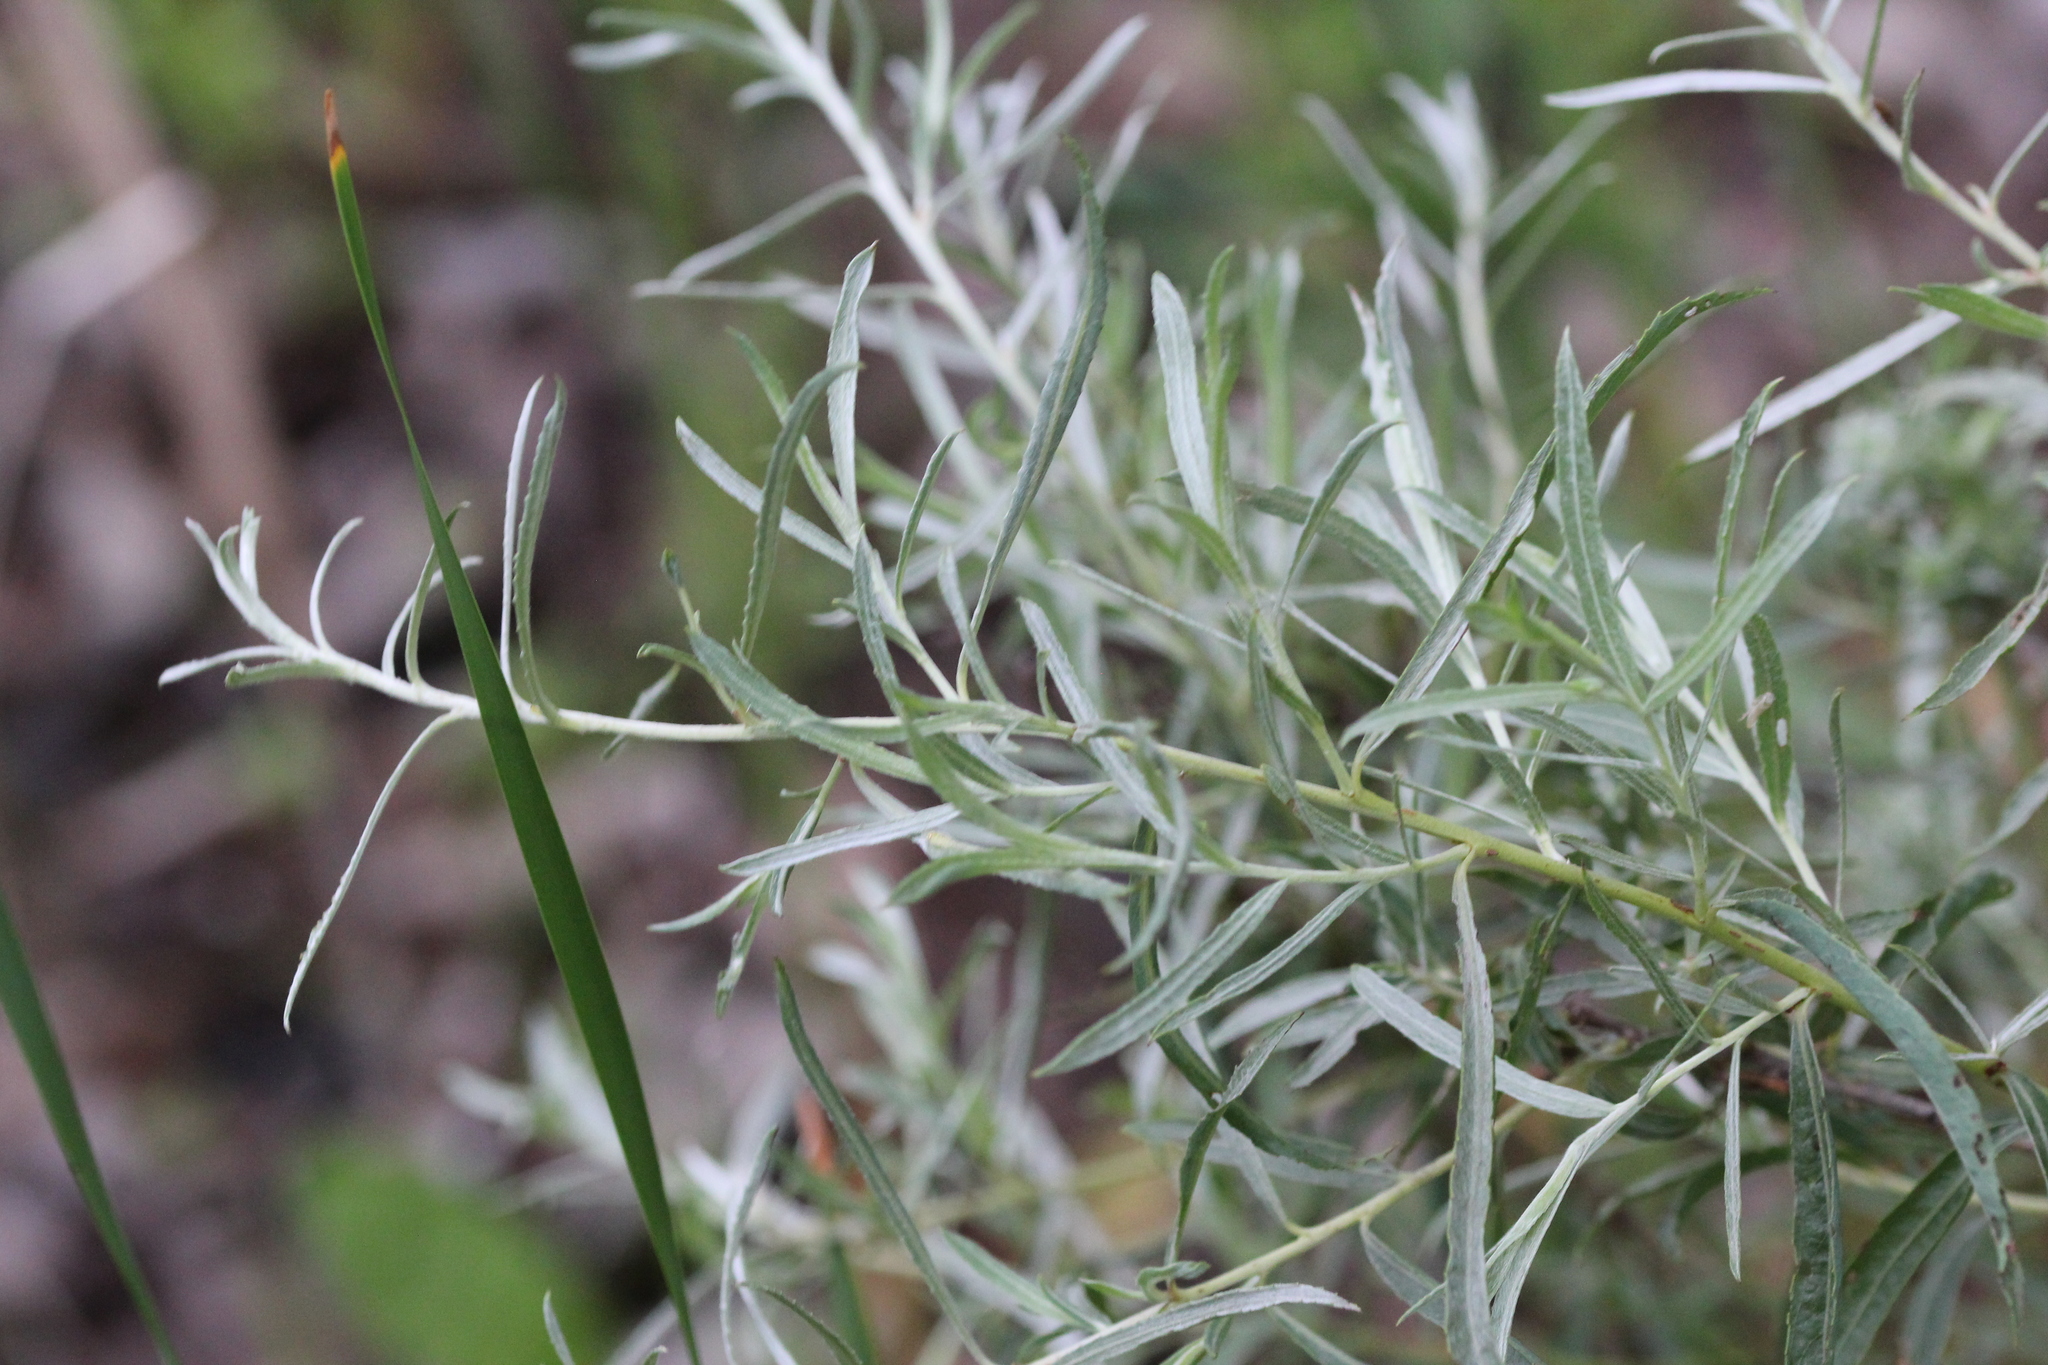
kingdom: Plantae
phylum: Tracheophyta
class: Magnoliopsida
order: Malpighiales
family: Salicaceae
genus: Salix
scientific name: Salix interior
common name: Sandbar willow
